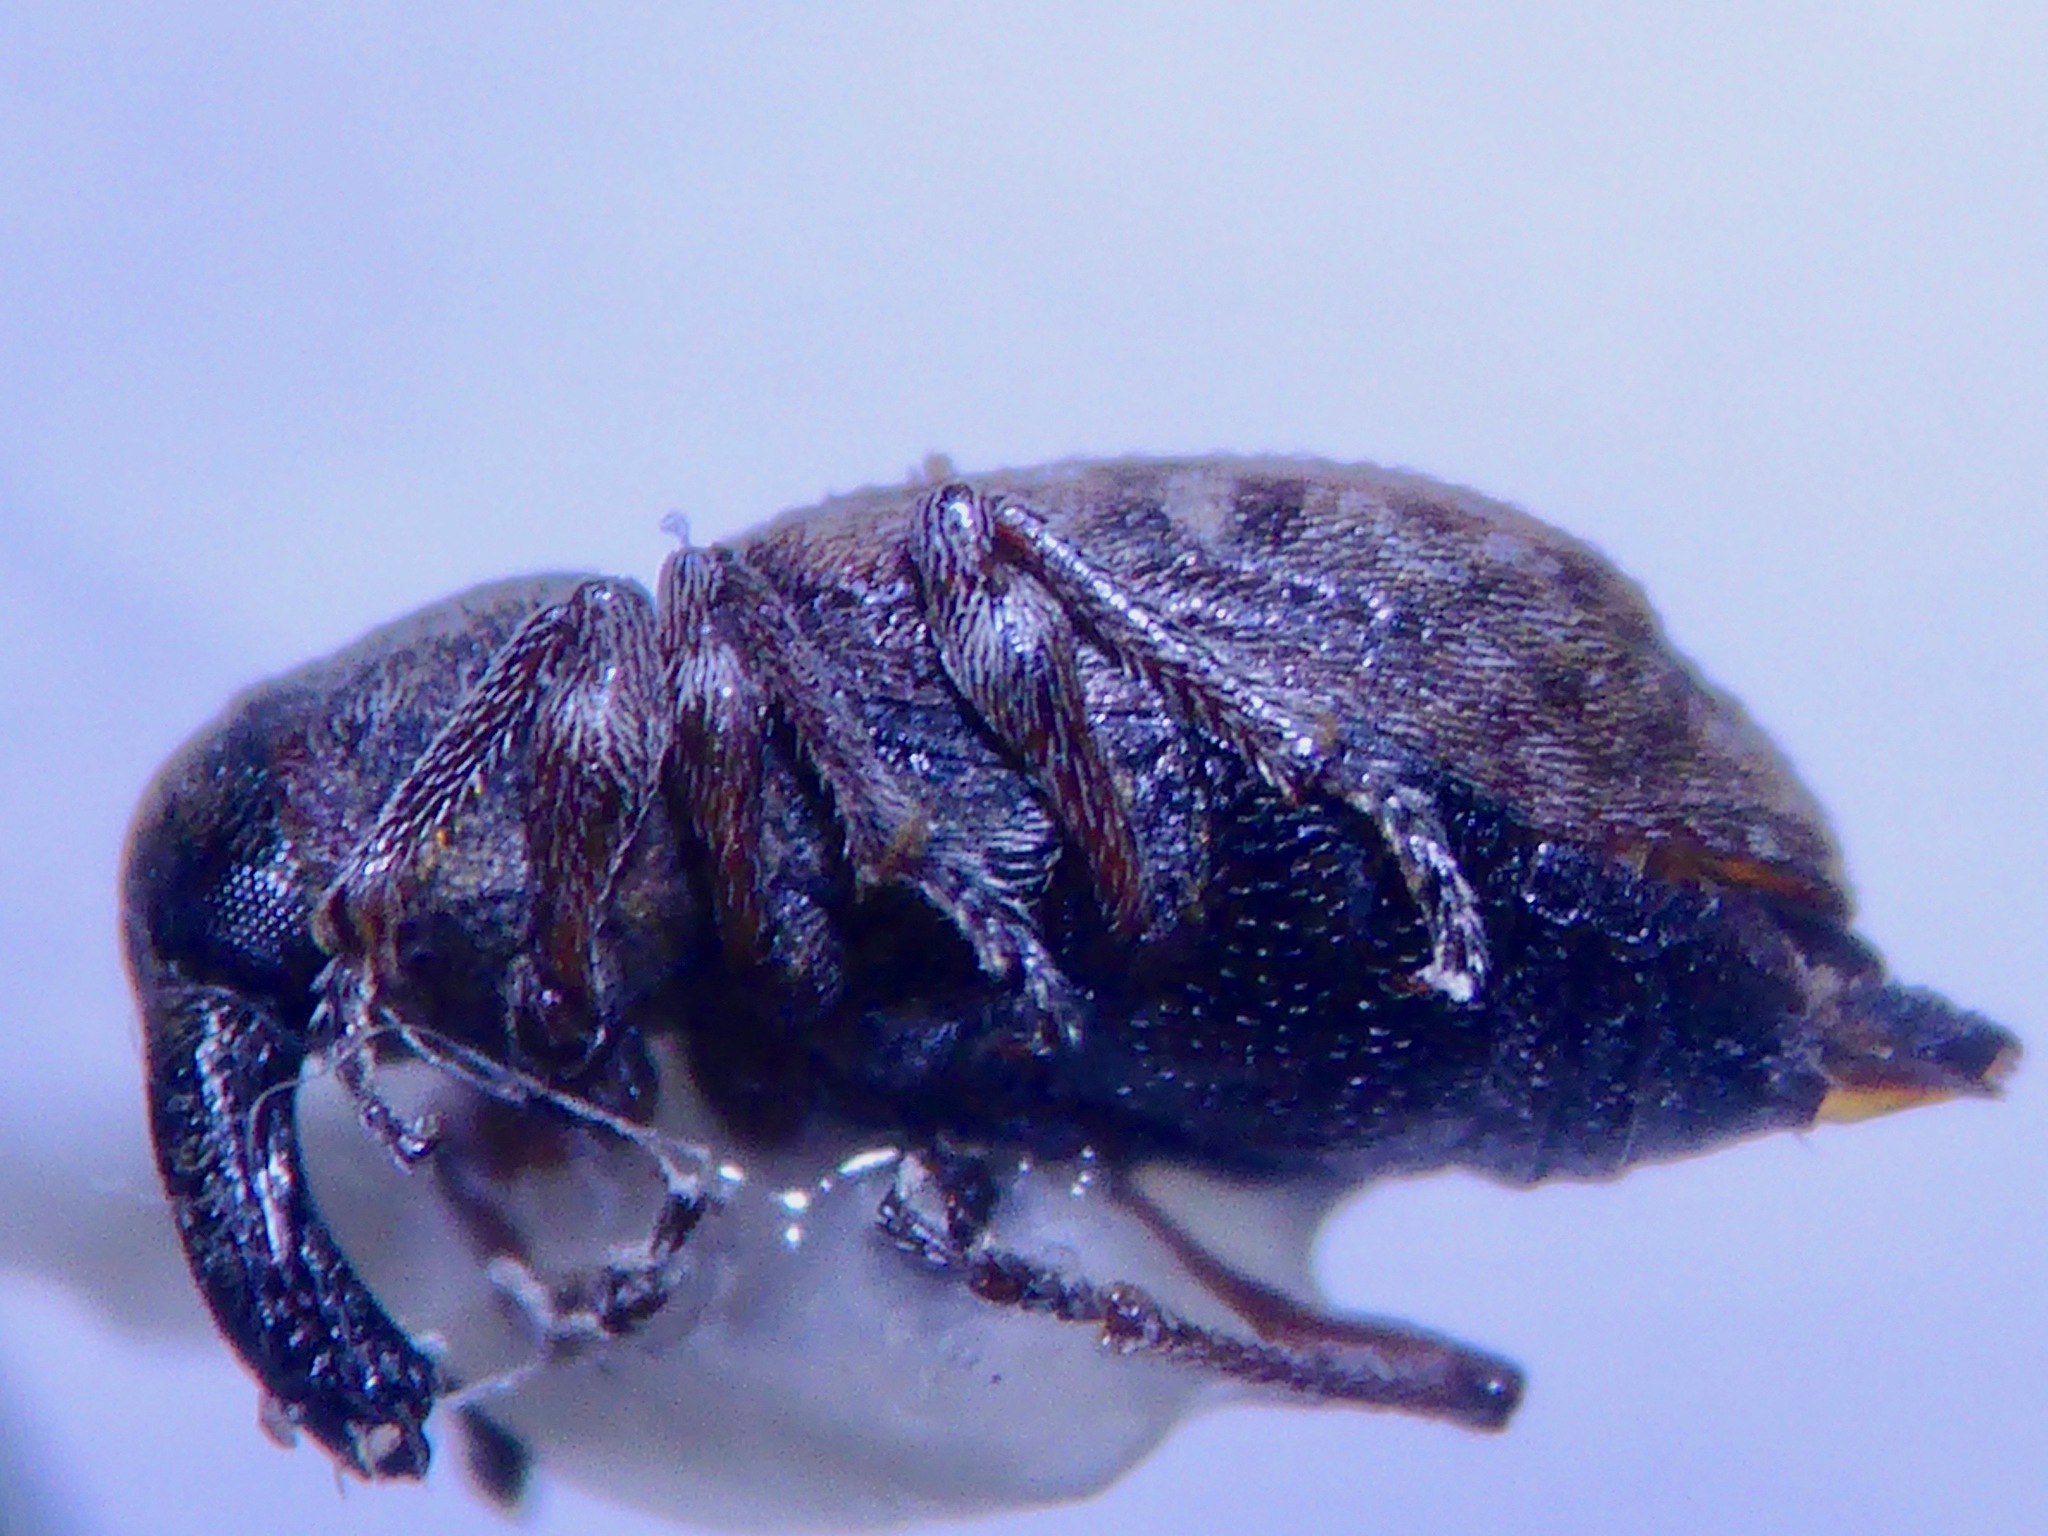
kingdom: Animalia
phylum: Arthropoda
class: Insecta
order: Coleoptera
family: Curculionidae
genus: Steriphus
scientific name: Steriphus diversipes
